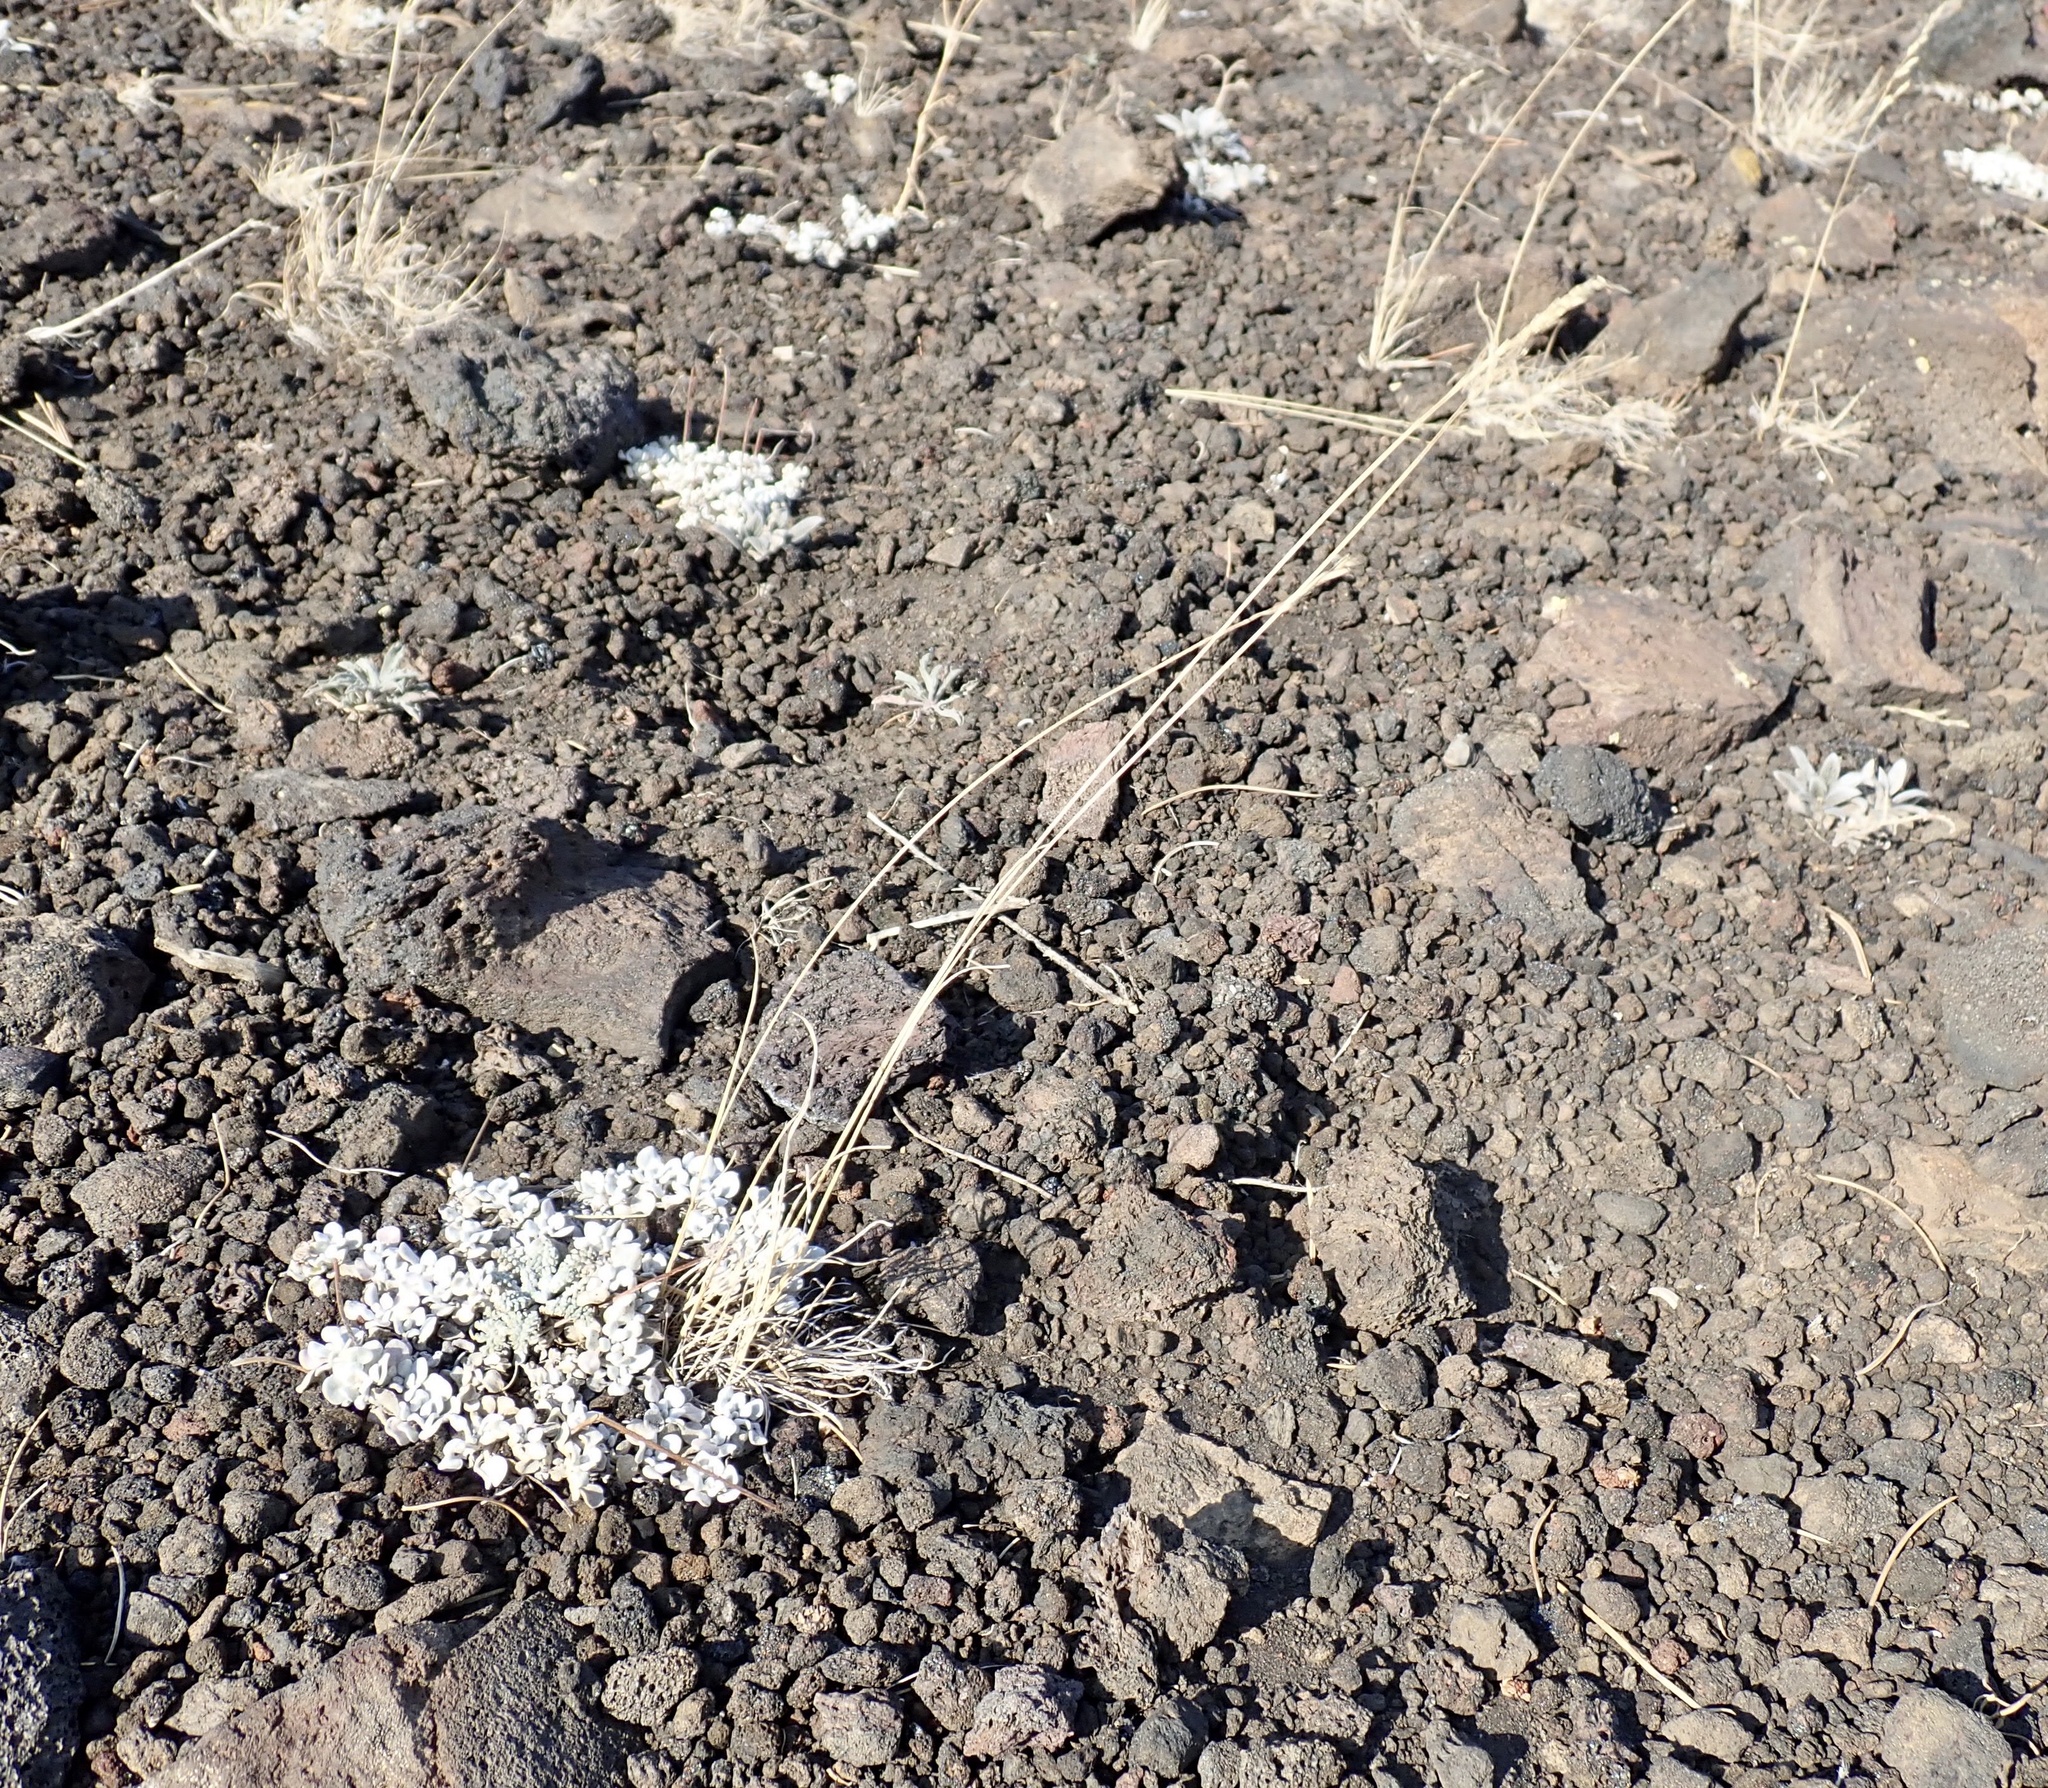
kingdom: Plantae
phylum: Tracheophyta
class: Liliopsida
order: Poales
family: Poaceae
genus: Poa
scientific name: Poa secunda
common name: Sandberg bluegrass
